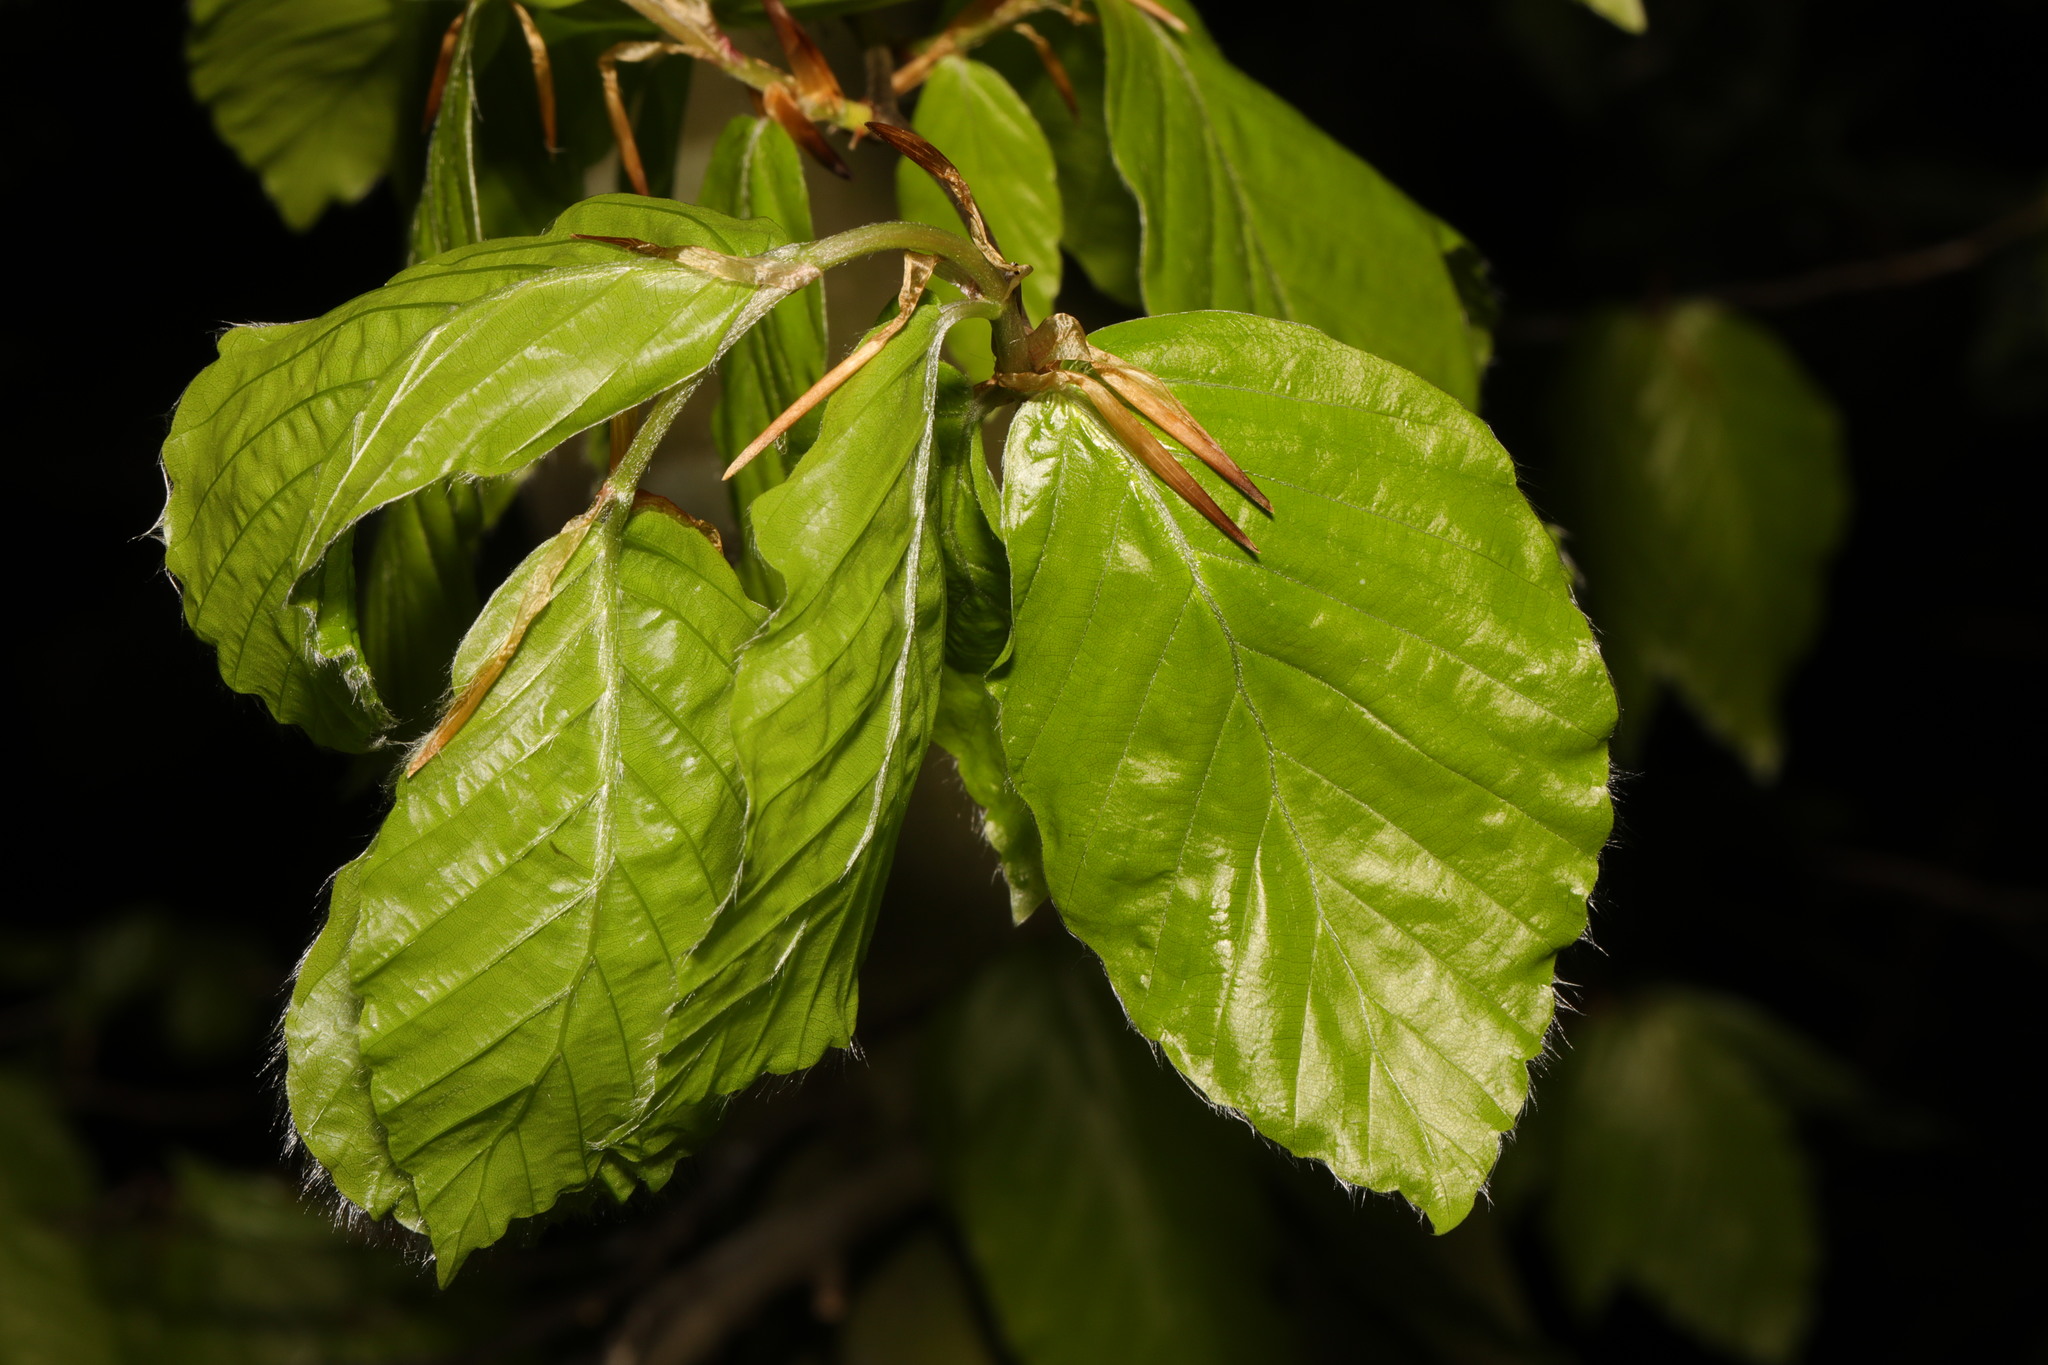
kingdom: Plantae
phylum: Tracheophyta
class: Magnoliopsida
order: Fagales
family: Fagaceae
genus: Fagus
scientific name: Fagus sylvatica
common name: Beech
